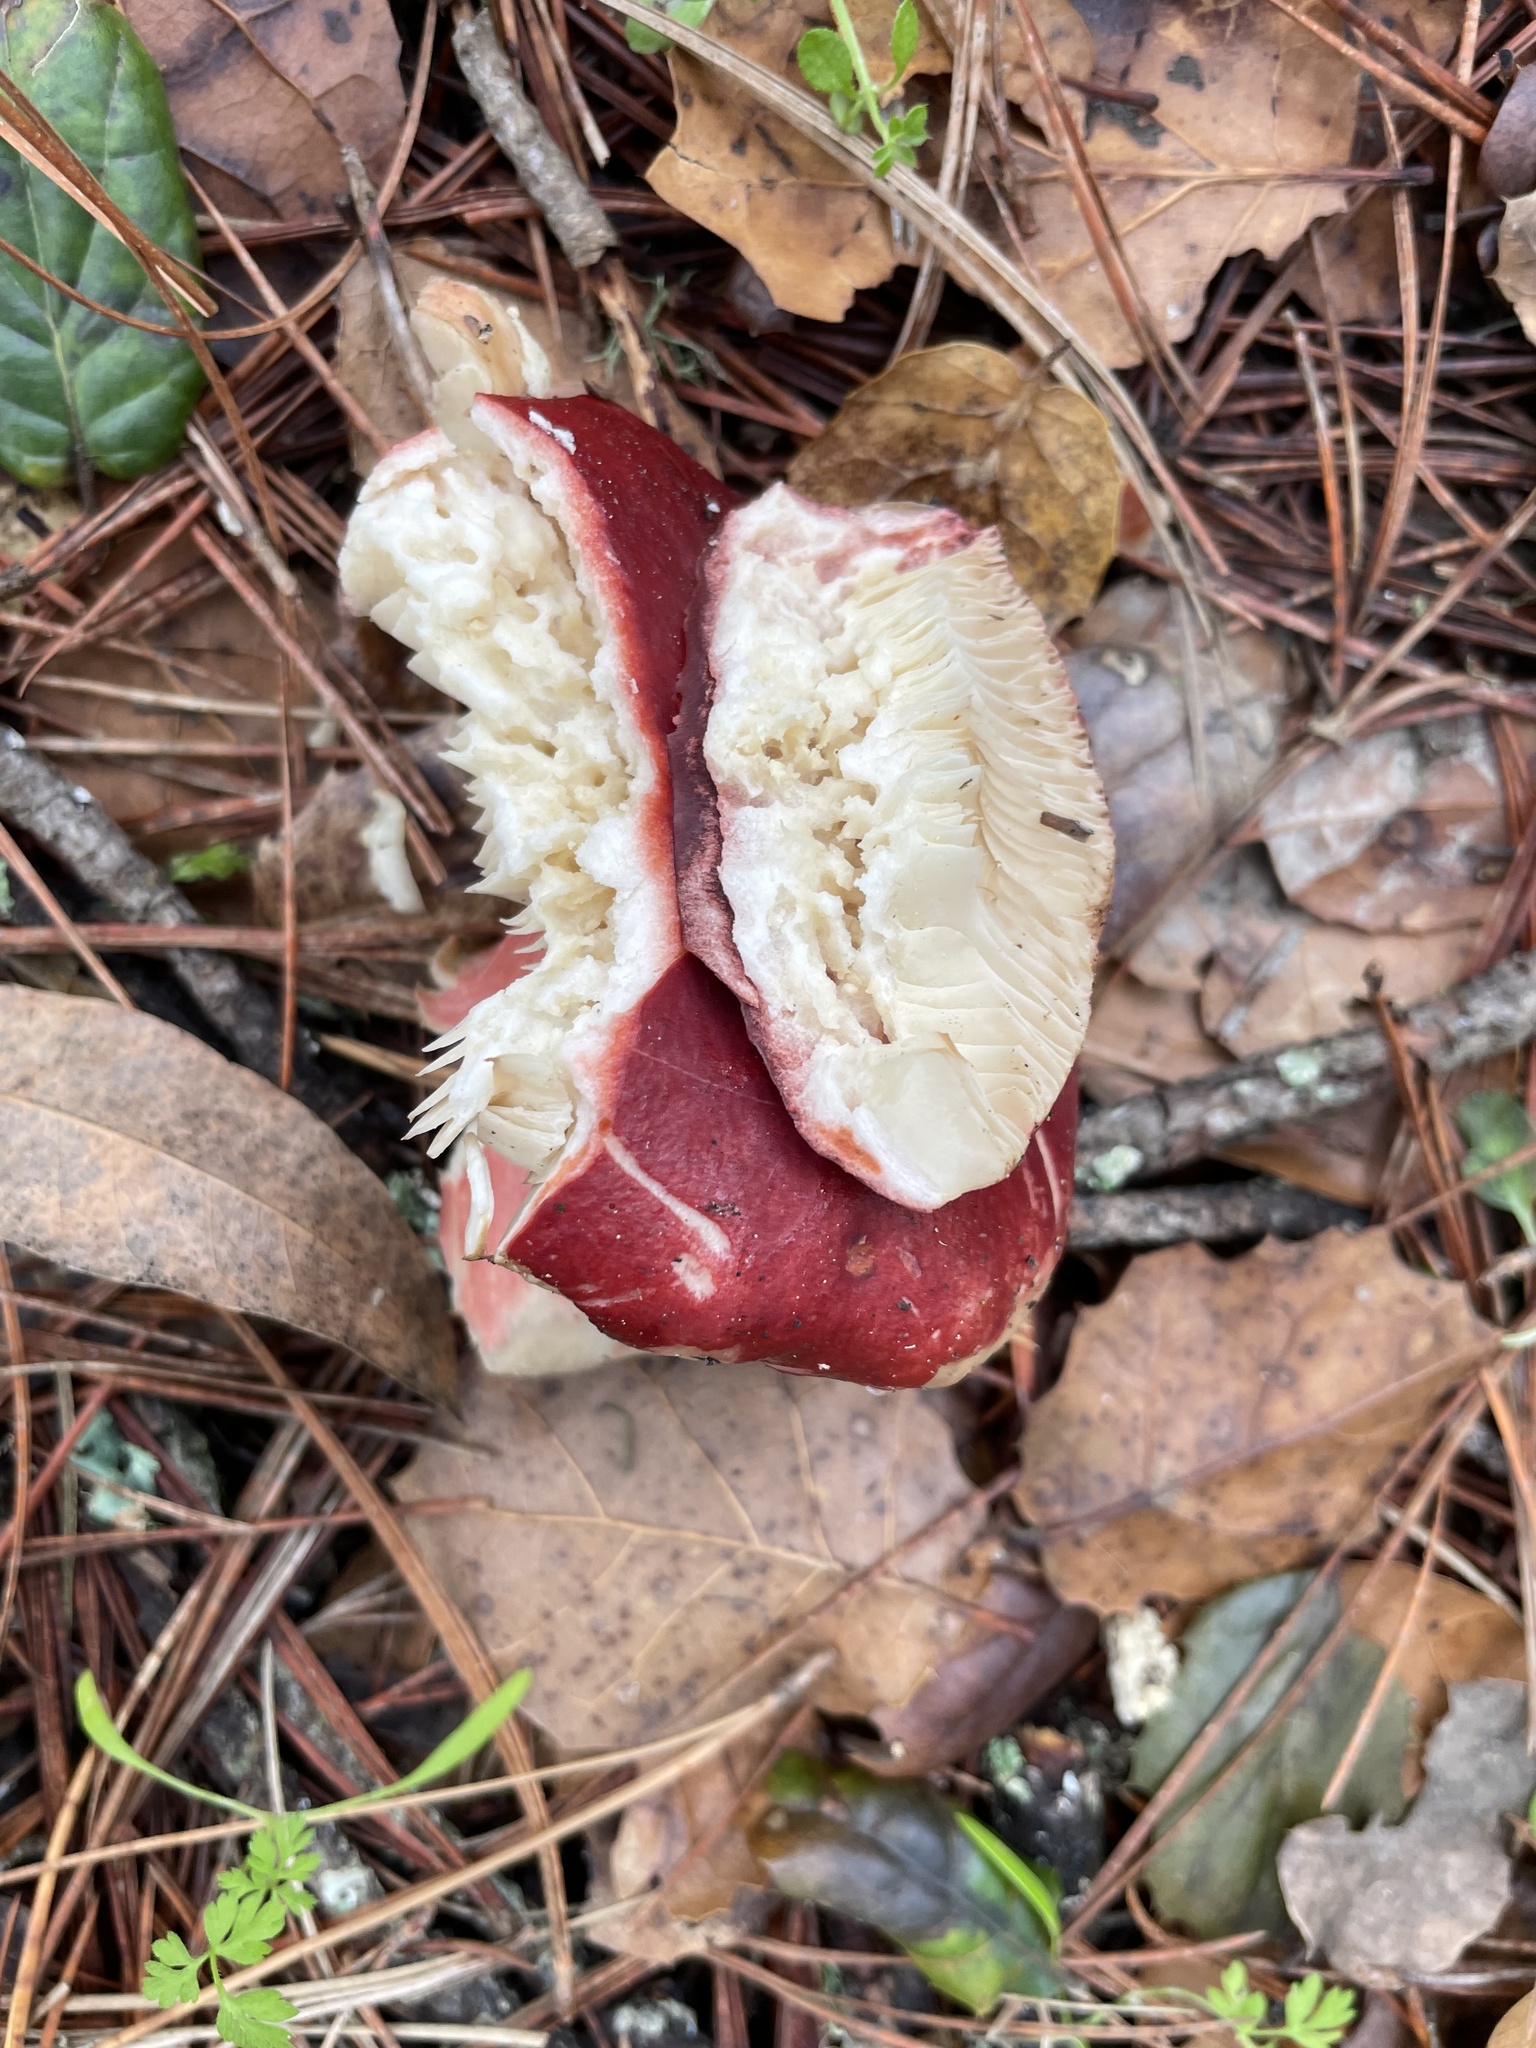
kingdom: Fungi
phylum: Basidiomycota
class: Agaricomycetes
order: Russulales
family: Russulaceae
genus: Russula
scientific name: Russula rhodocephala
